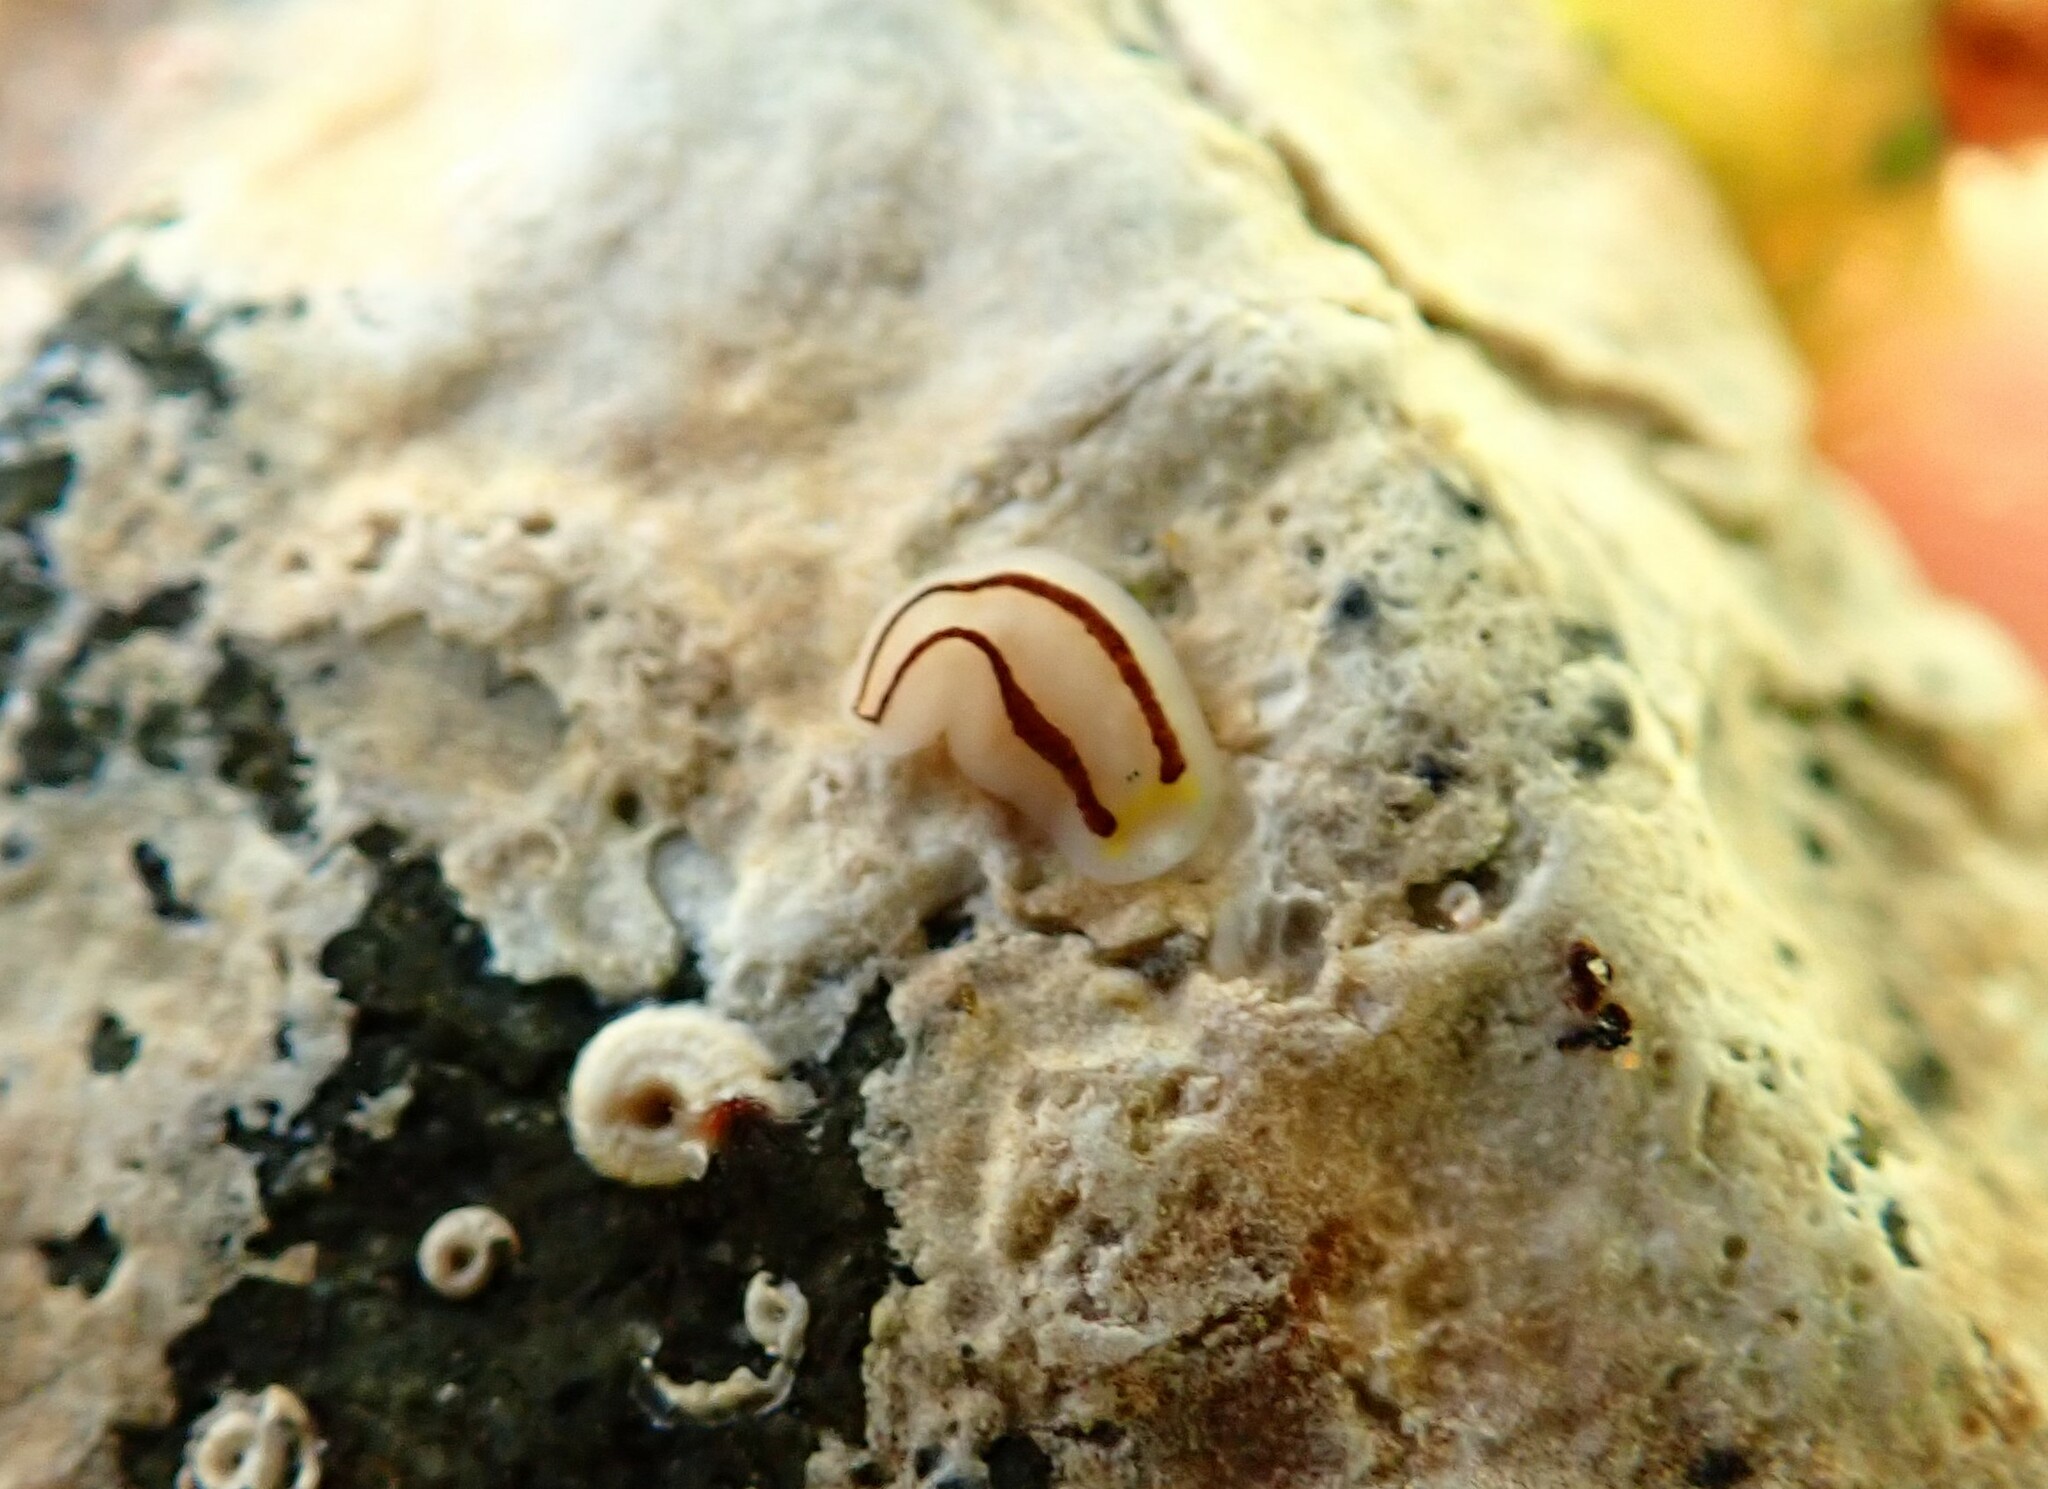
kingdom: Animalia
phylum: Platyhelminthes
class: Turbellaria
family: Chromoplanidae
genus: Chromoplana
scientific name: Chromoplana sirena
